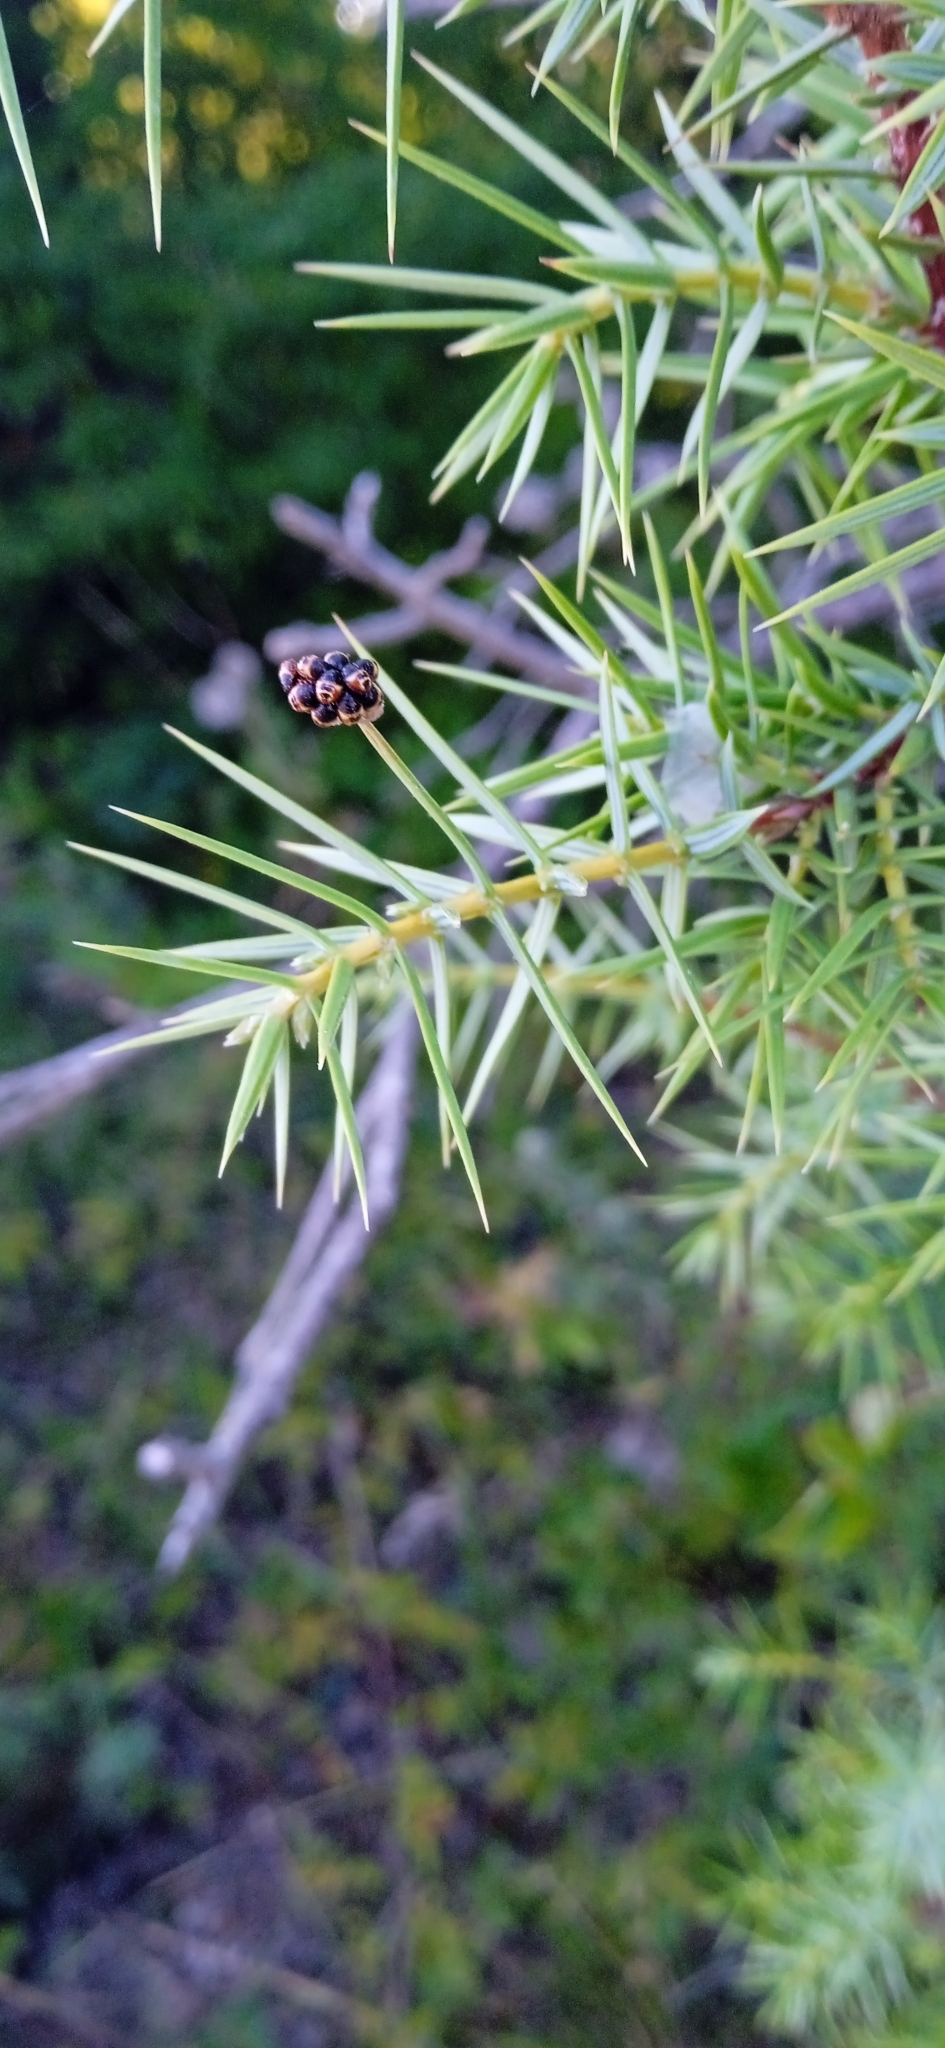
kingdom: Plantae
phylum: Tracheophyta
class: Pinopsida
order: Pinales
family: Cupressaceae
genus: Juniperus
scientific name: Juniperus oxycedrus
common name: Prickly juniper
